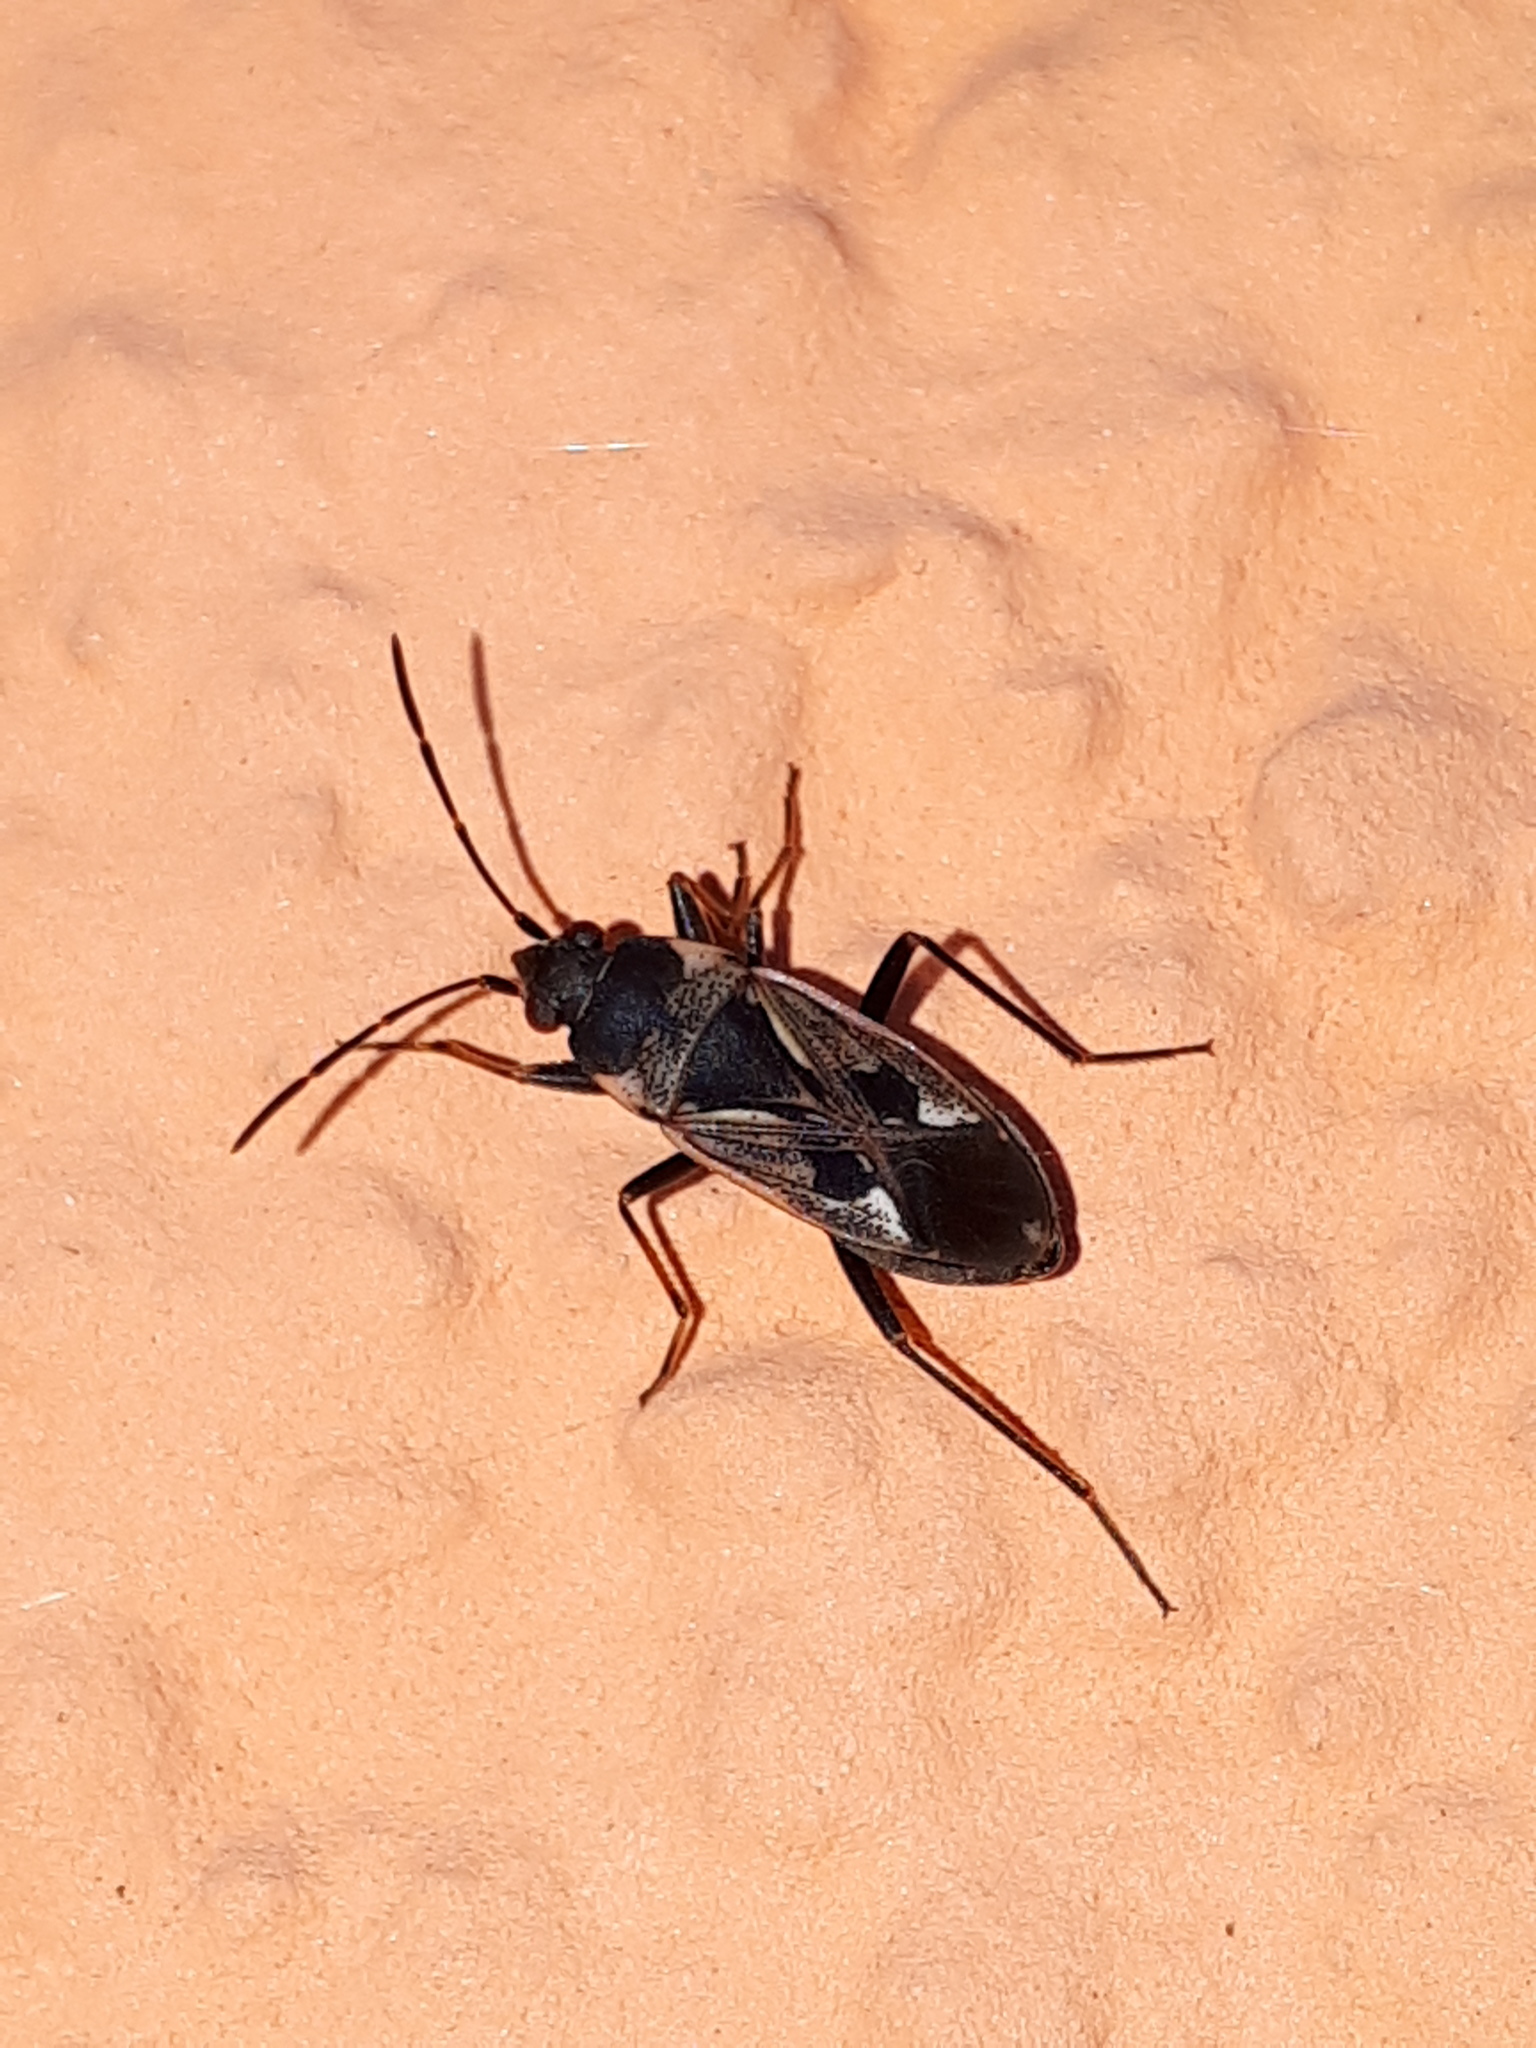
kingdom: Animalia
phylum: Arthropoda
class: Insecta
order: Hemiptera
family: Rhyparochromidae
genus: Rhyparochromus
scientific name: Rhyparochromus vulgaris
